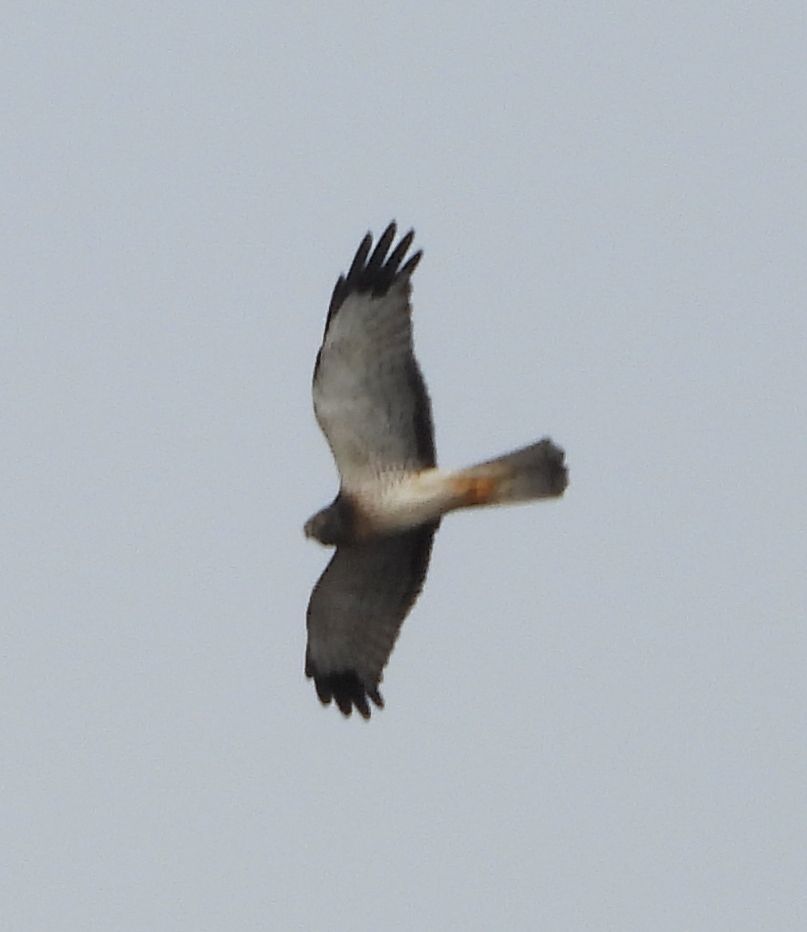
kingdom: Animalia
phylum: Chordata
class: Aves
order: Accipitriformes
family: Accipitridae
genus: Circus
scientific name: Circus cyaneus
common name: Hen harrier
